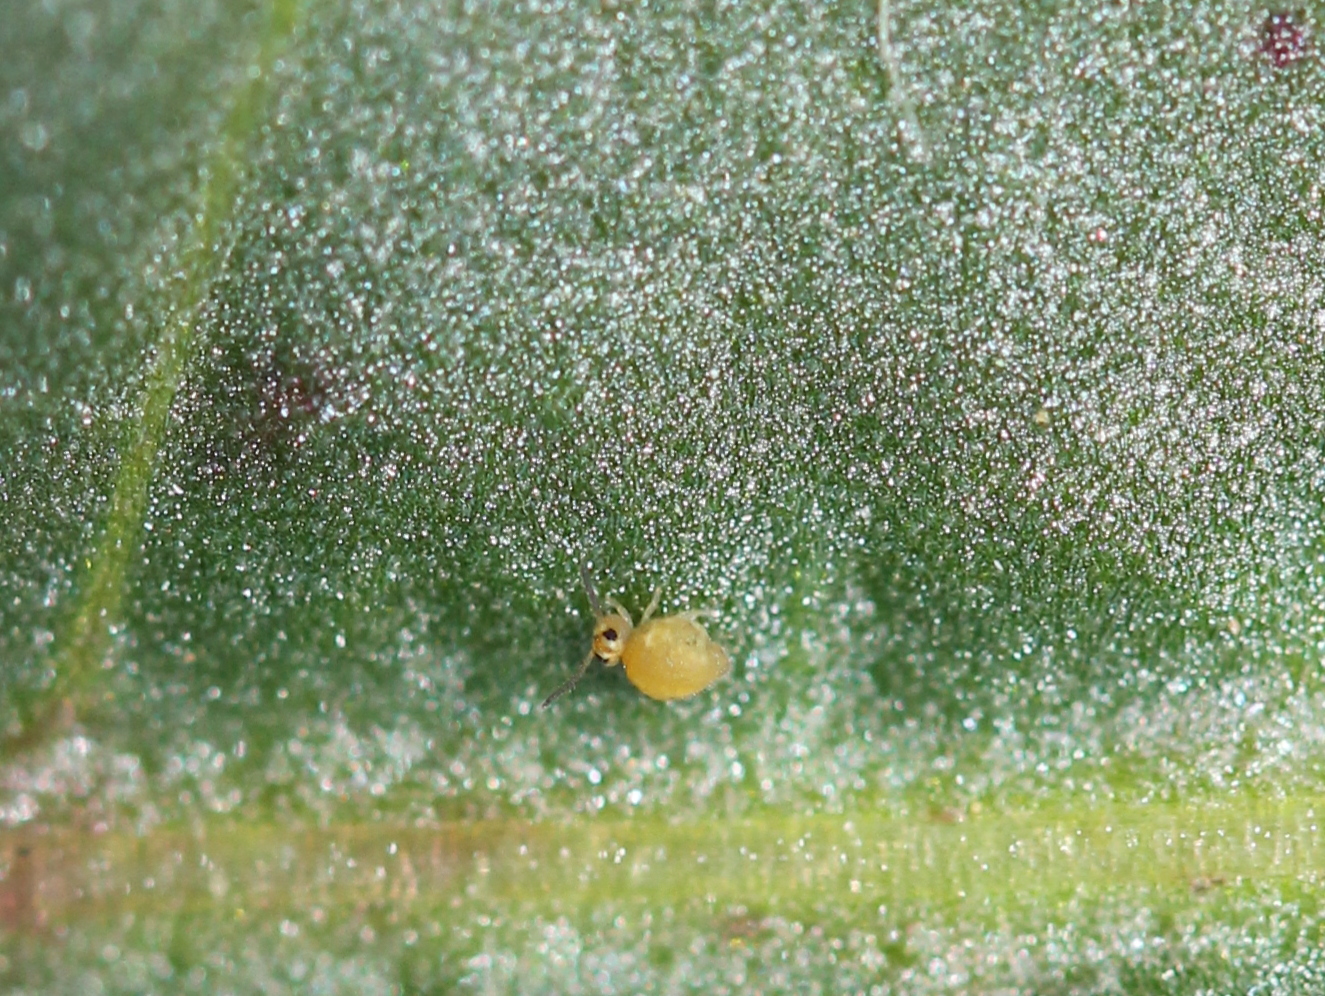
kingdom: Animalia
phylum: Arthropoda
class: Collembola
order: Symphypleona
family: Katiannidae
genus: Sminthurinus
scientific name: Sminthurinus henshawi
